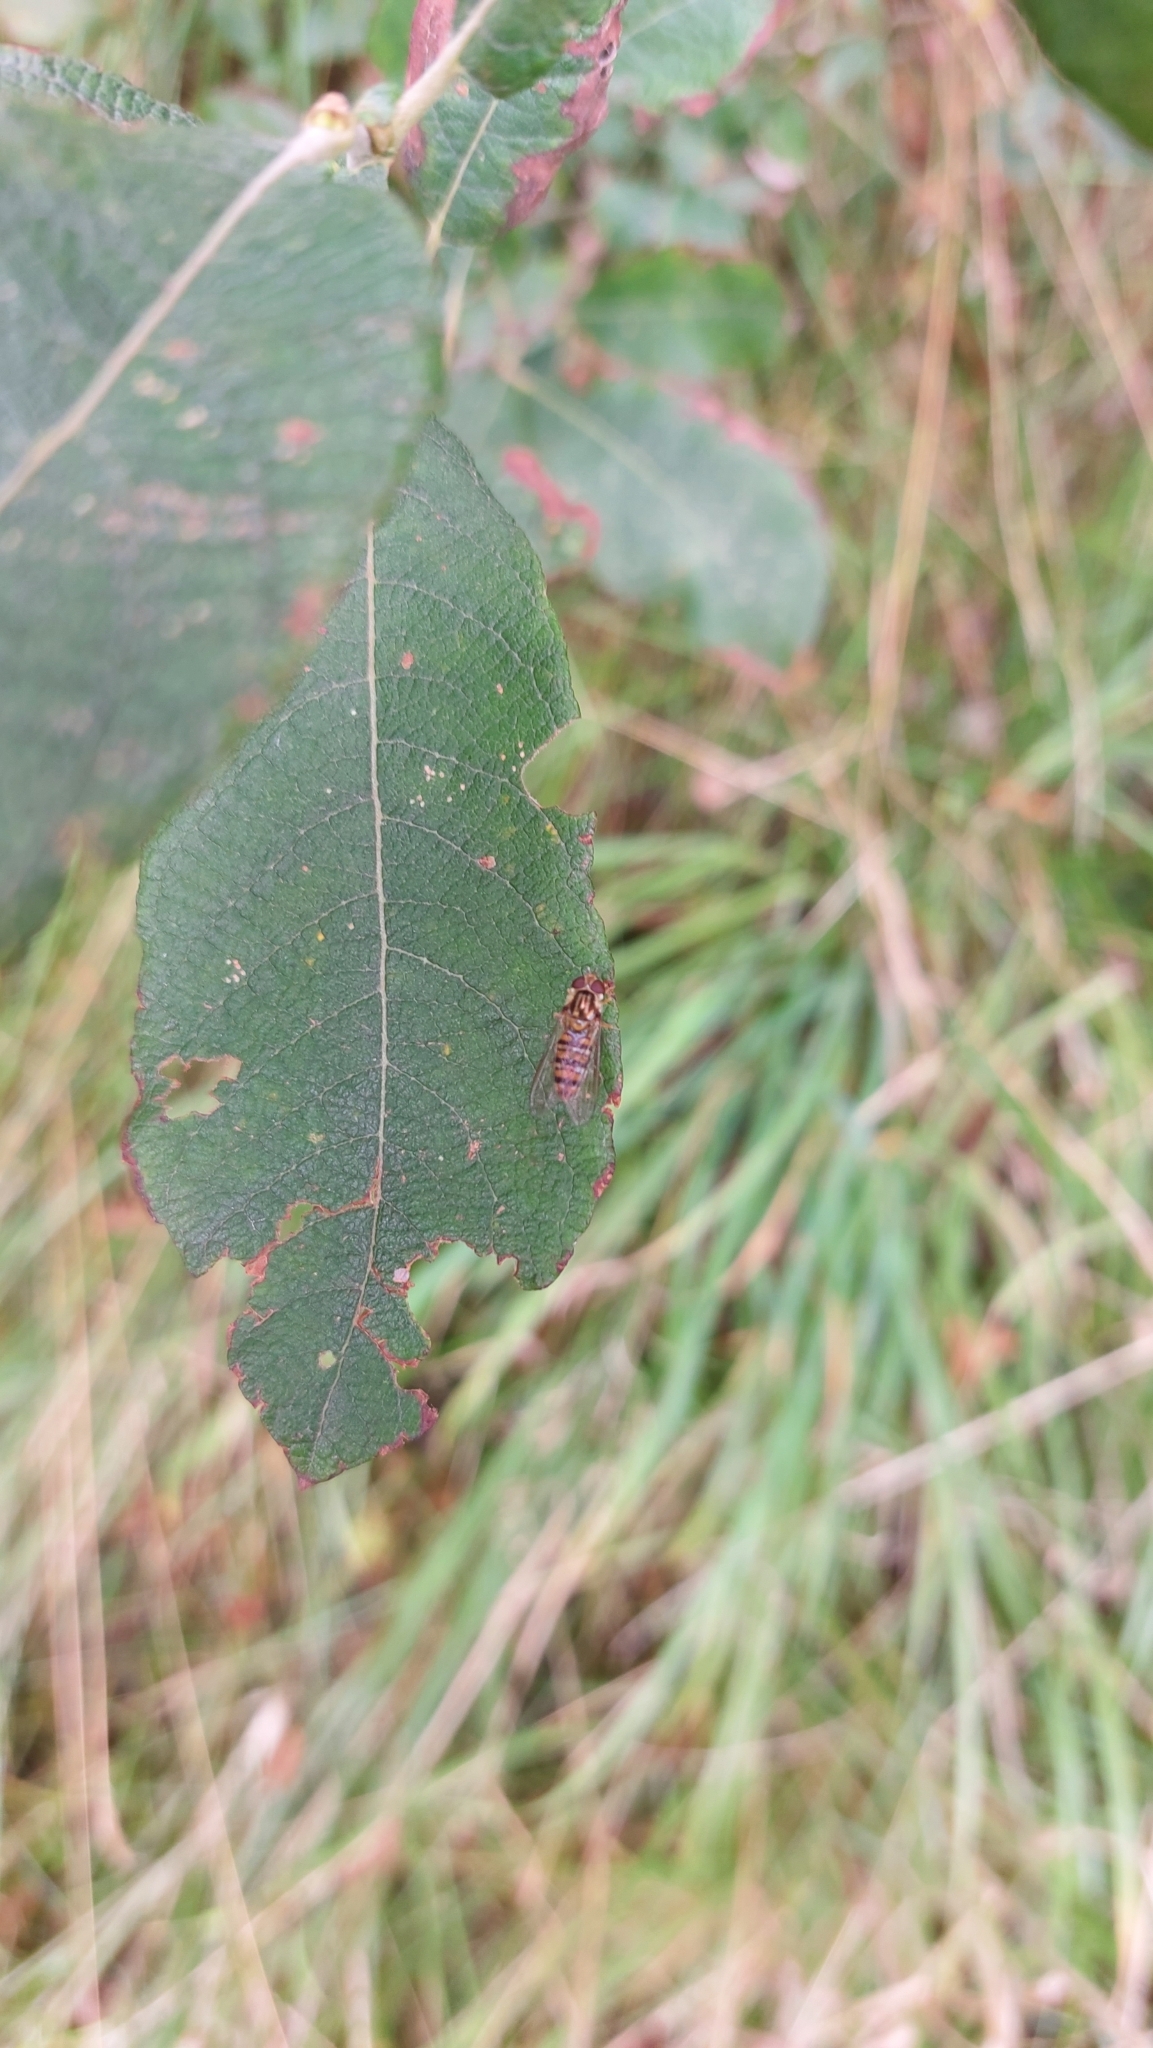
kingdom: Animalia
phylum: Arthropoda
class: Insecta
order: Diptera
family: Syrphidae
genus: Episyrphus
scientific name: Episyrphus balteatus
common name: Marmalade hoverfly
